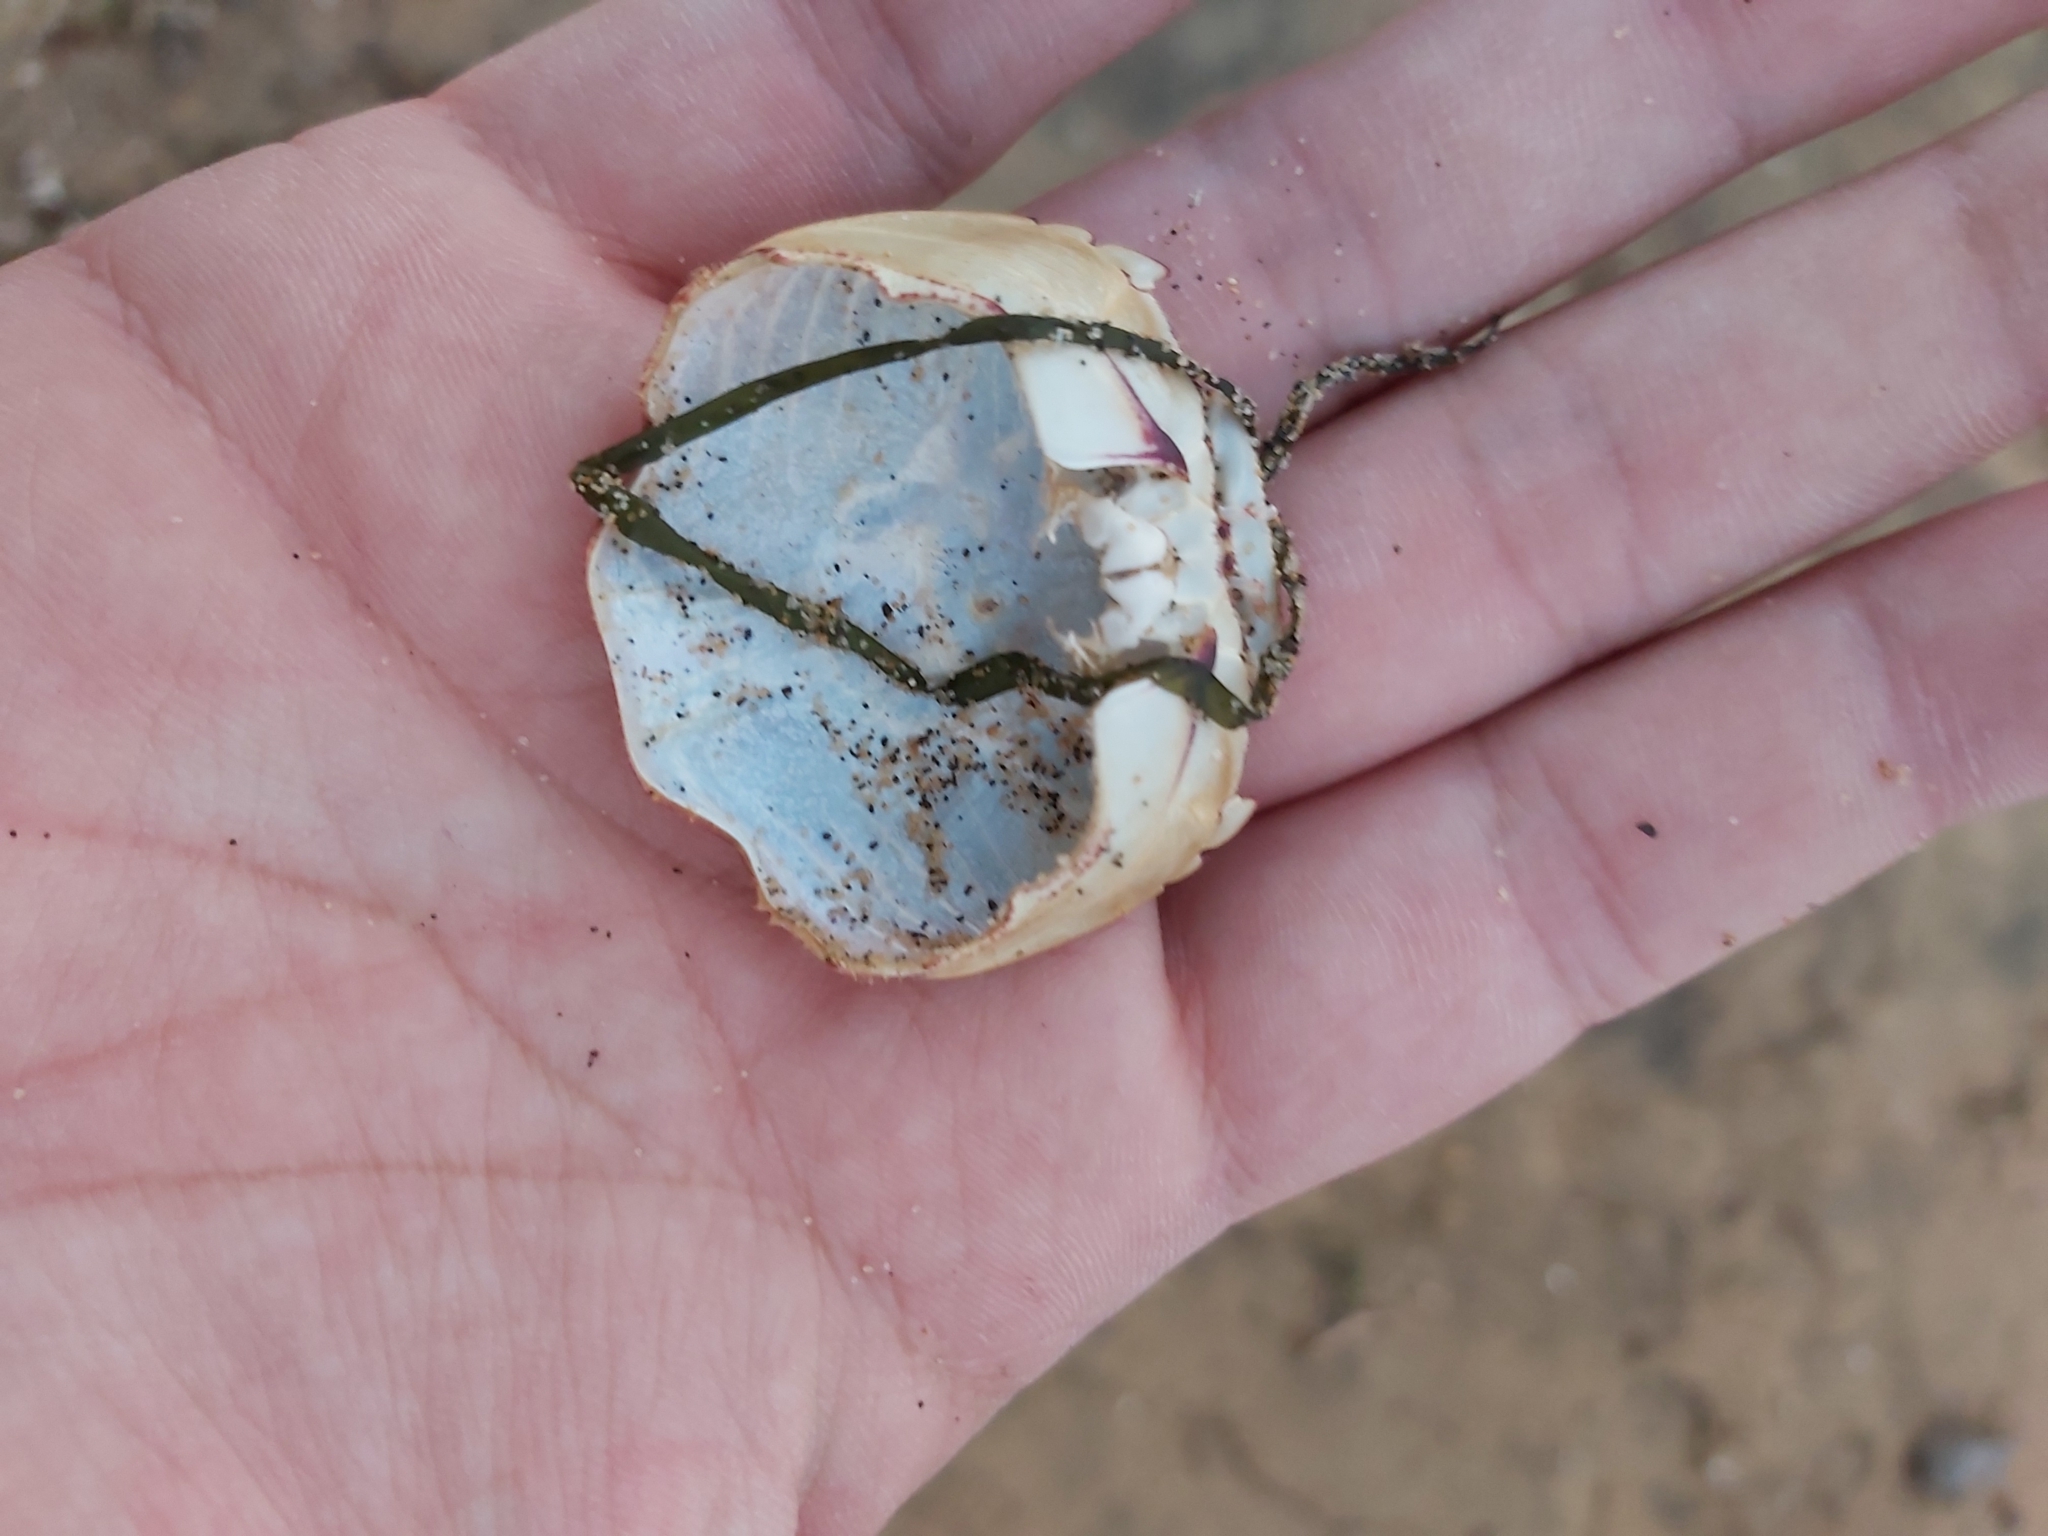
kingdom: Animalia
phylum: Arthropoda
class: Malacostraca
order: Decapoda
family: Grapsidae
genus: Leptograpsus
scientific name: Leptograpsus variegatus
